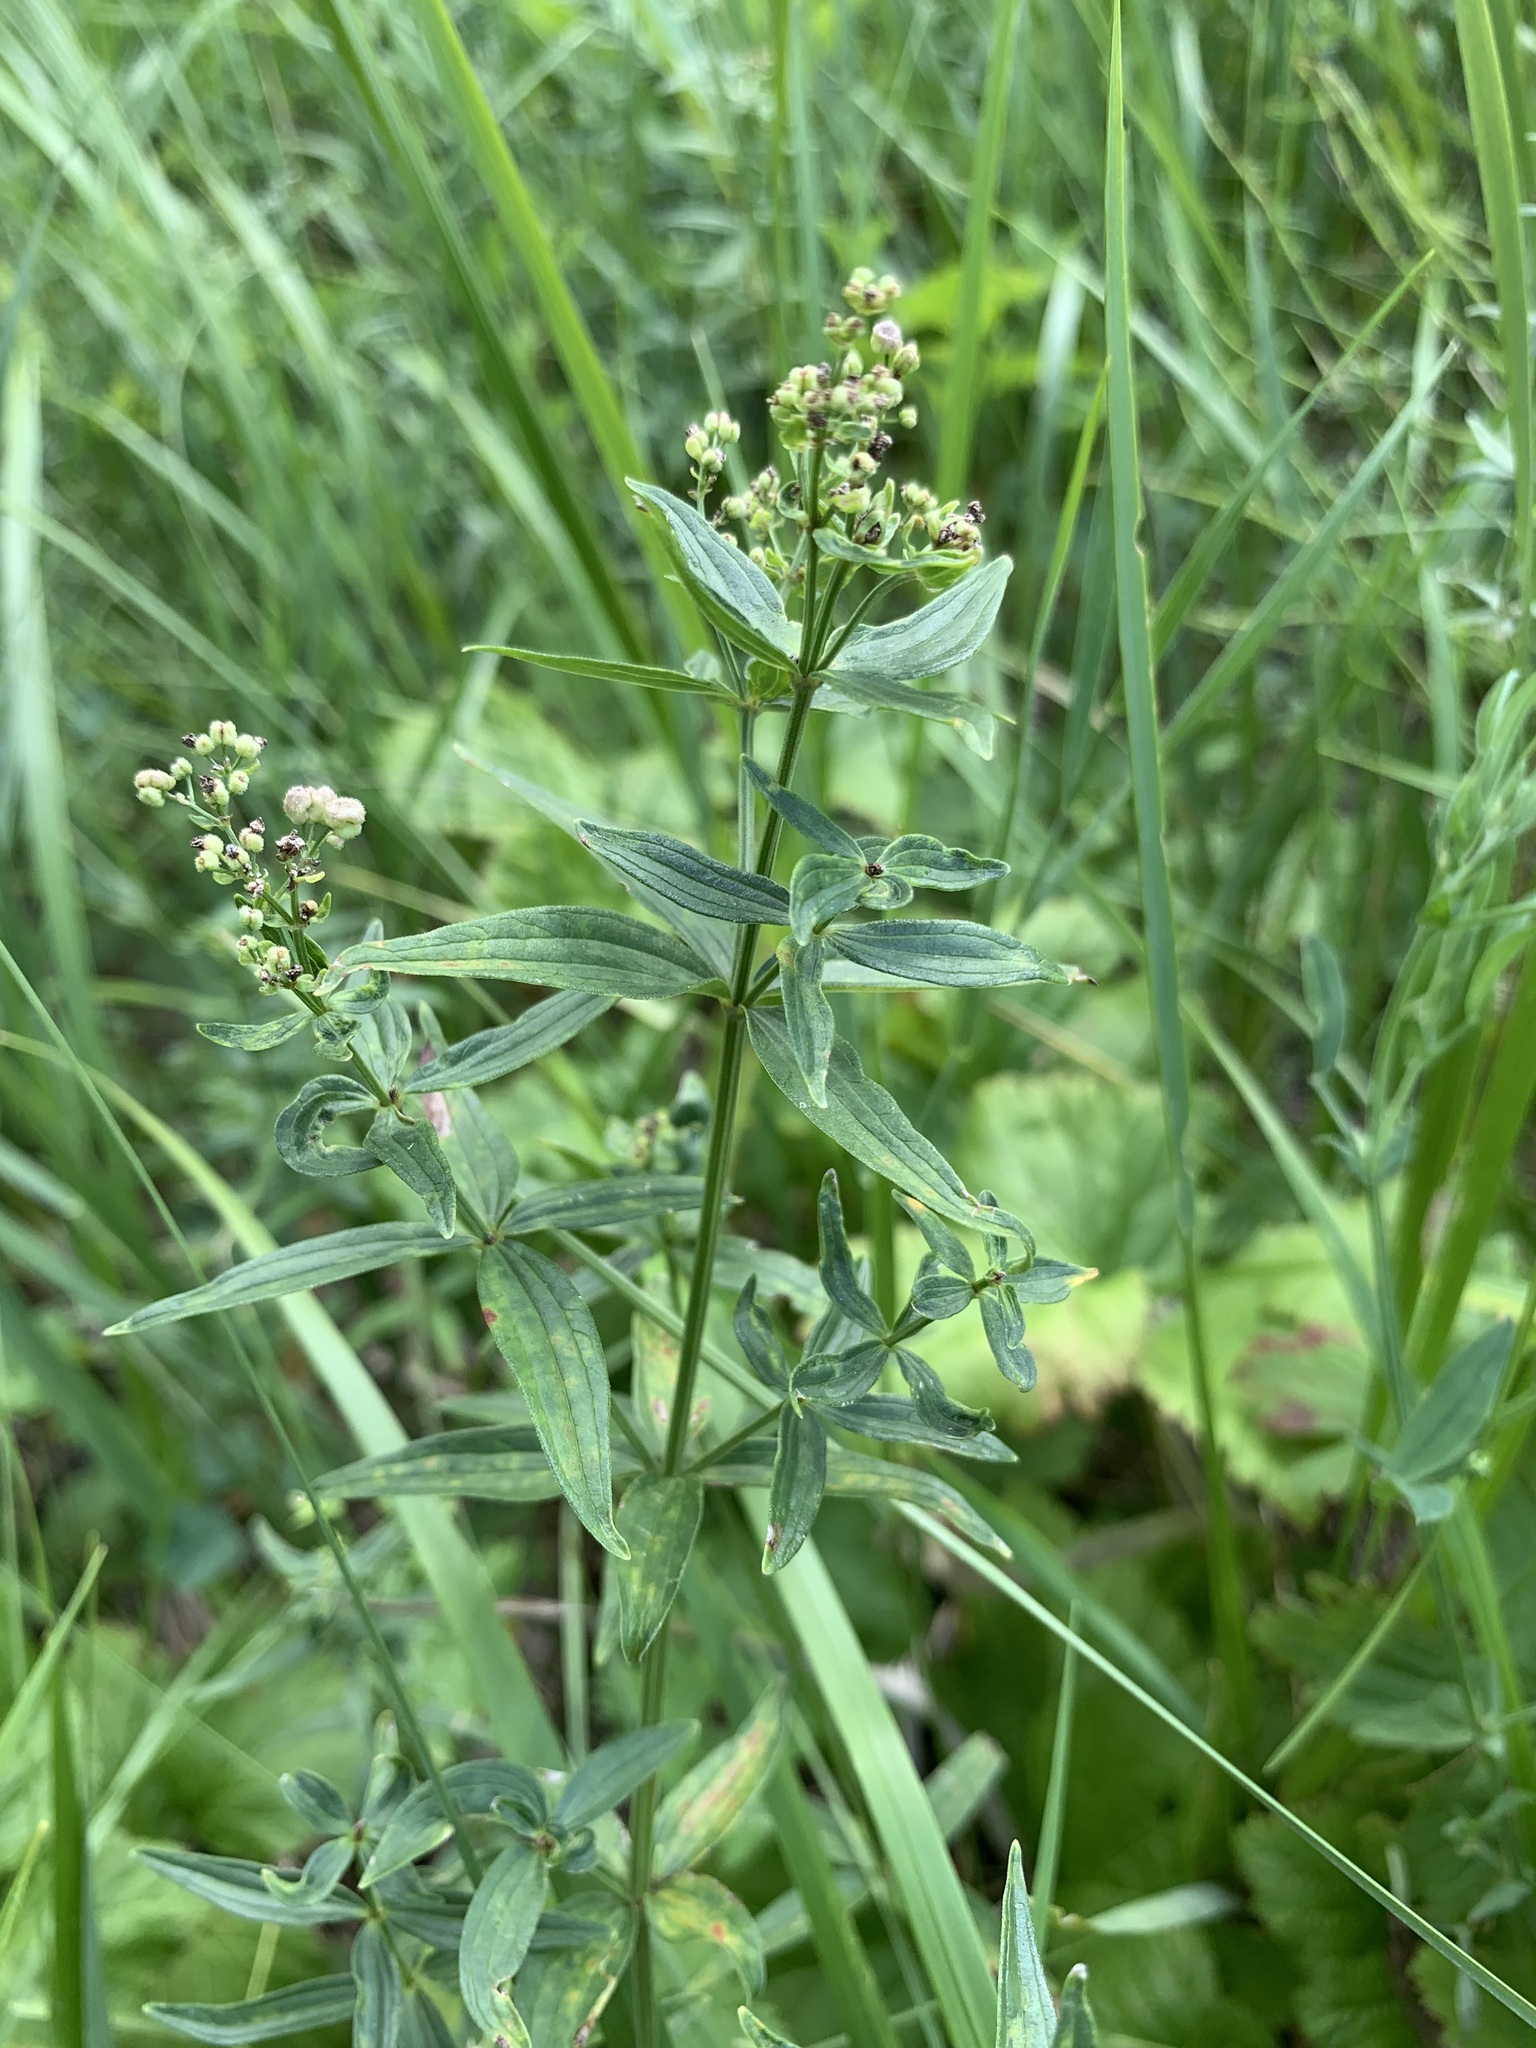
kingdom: Plantae
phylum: Tracheophyta
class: Magnoliopsida
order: Gentianales
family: Rubiaceae
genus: Galium
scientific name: Galium rubioides
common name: European bedstraw
